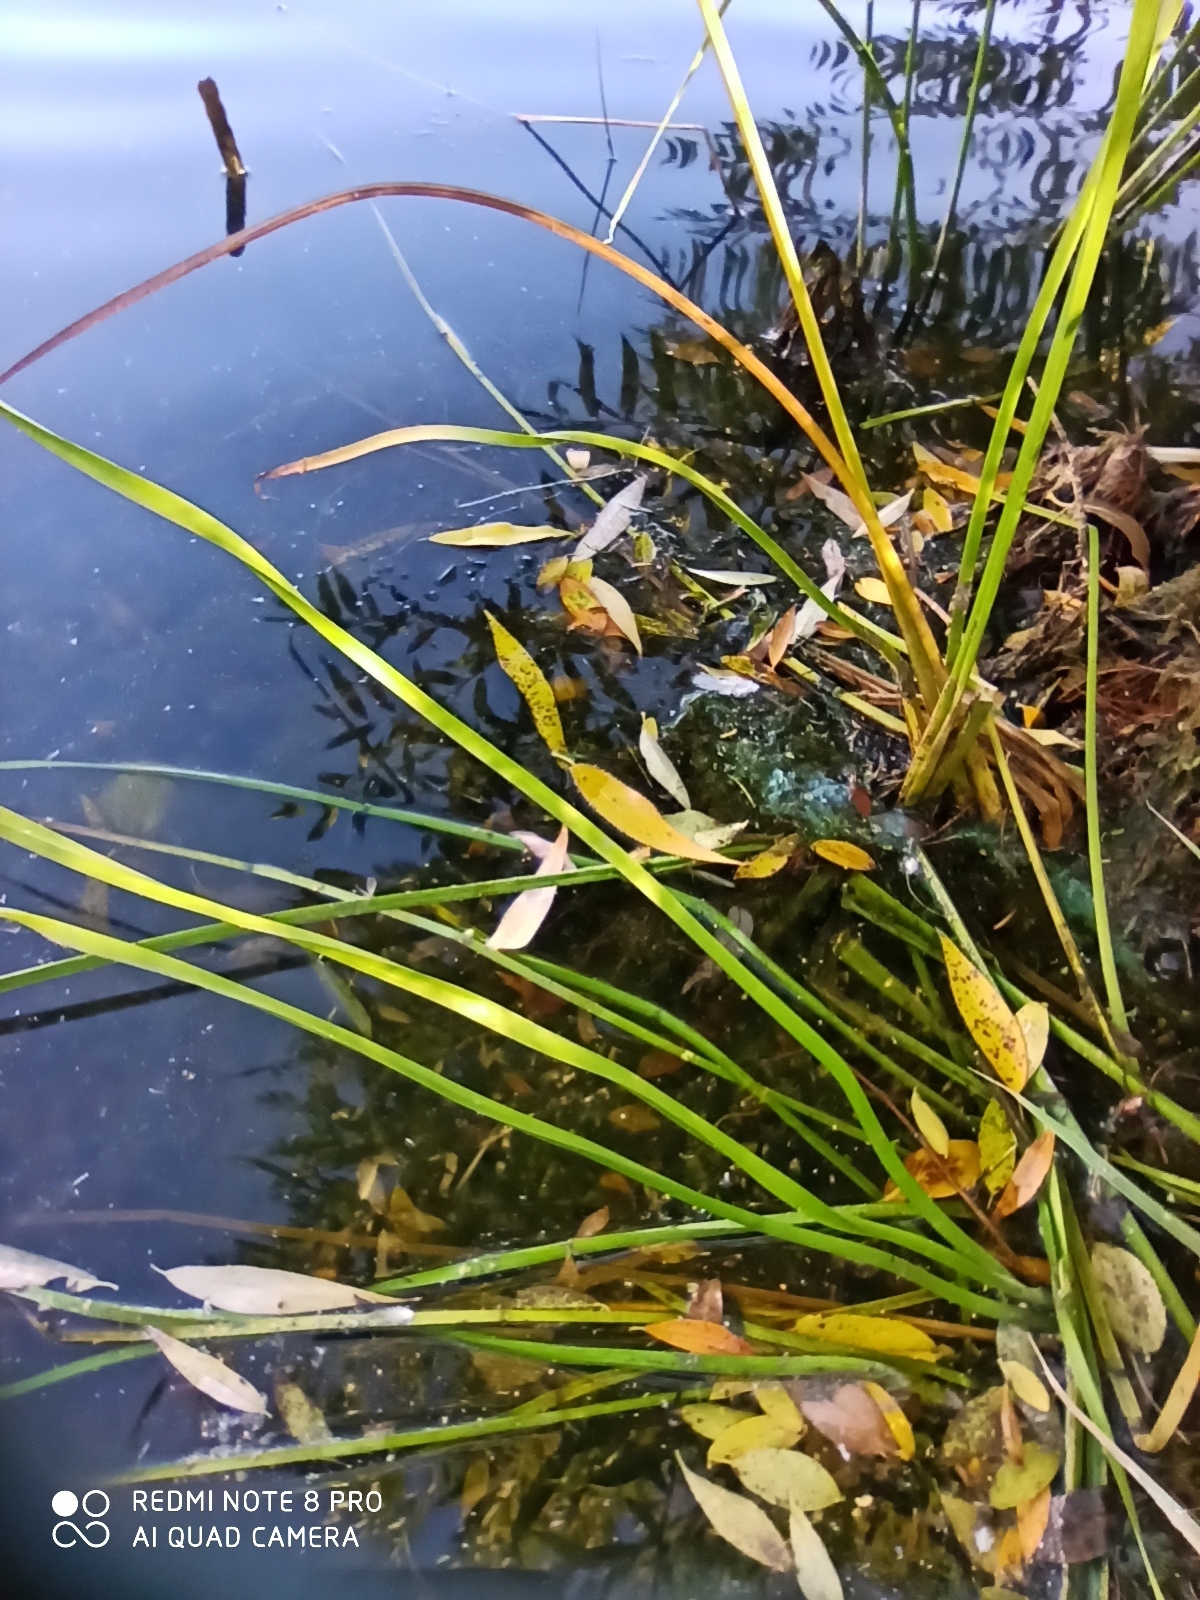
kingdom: Plantae
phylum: Tracheophyta
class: Liliopsida
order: Alismatales
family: Butomaceae
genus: Butomus
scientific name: Butomus umbellatus
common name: Flowering-rush
